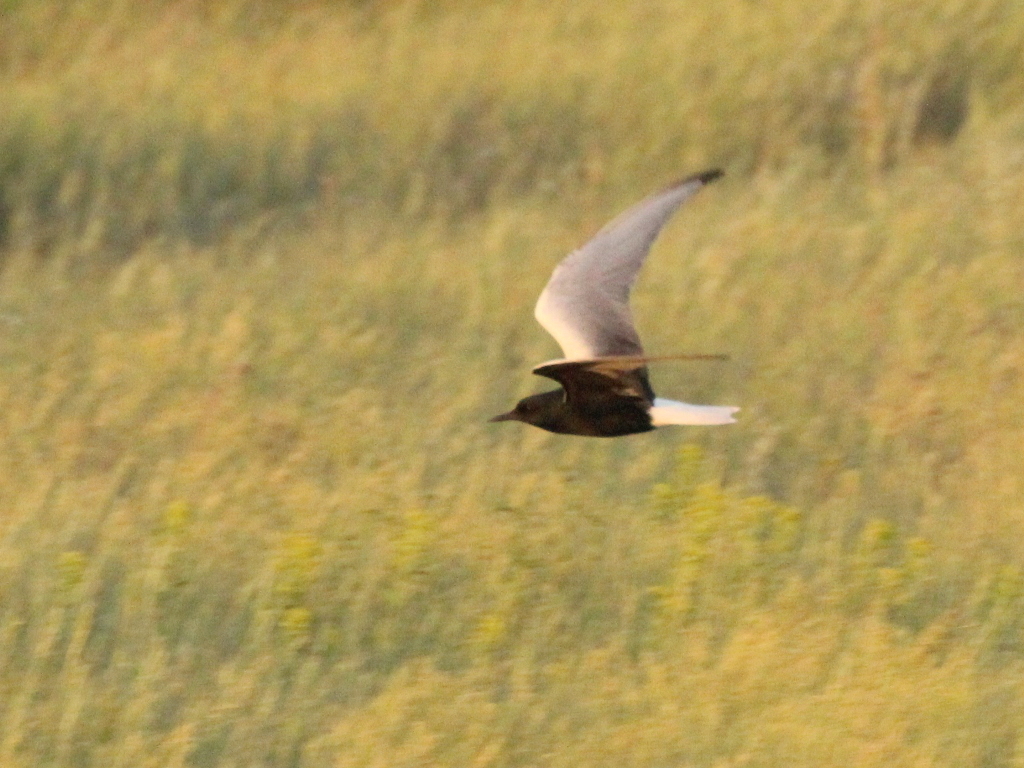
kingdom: Animalia
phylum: Chordata
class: Aves
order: Charadriiformes
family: Laridae
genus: Chlidonias
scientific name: Chlidonias leucopterus
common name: White-winged tern
